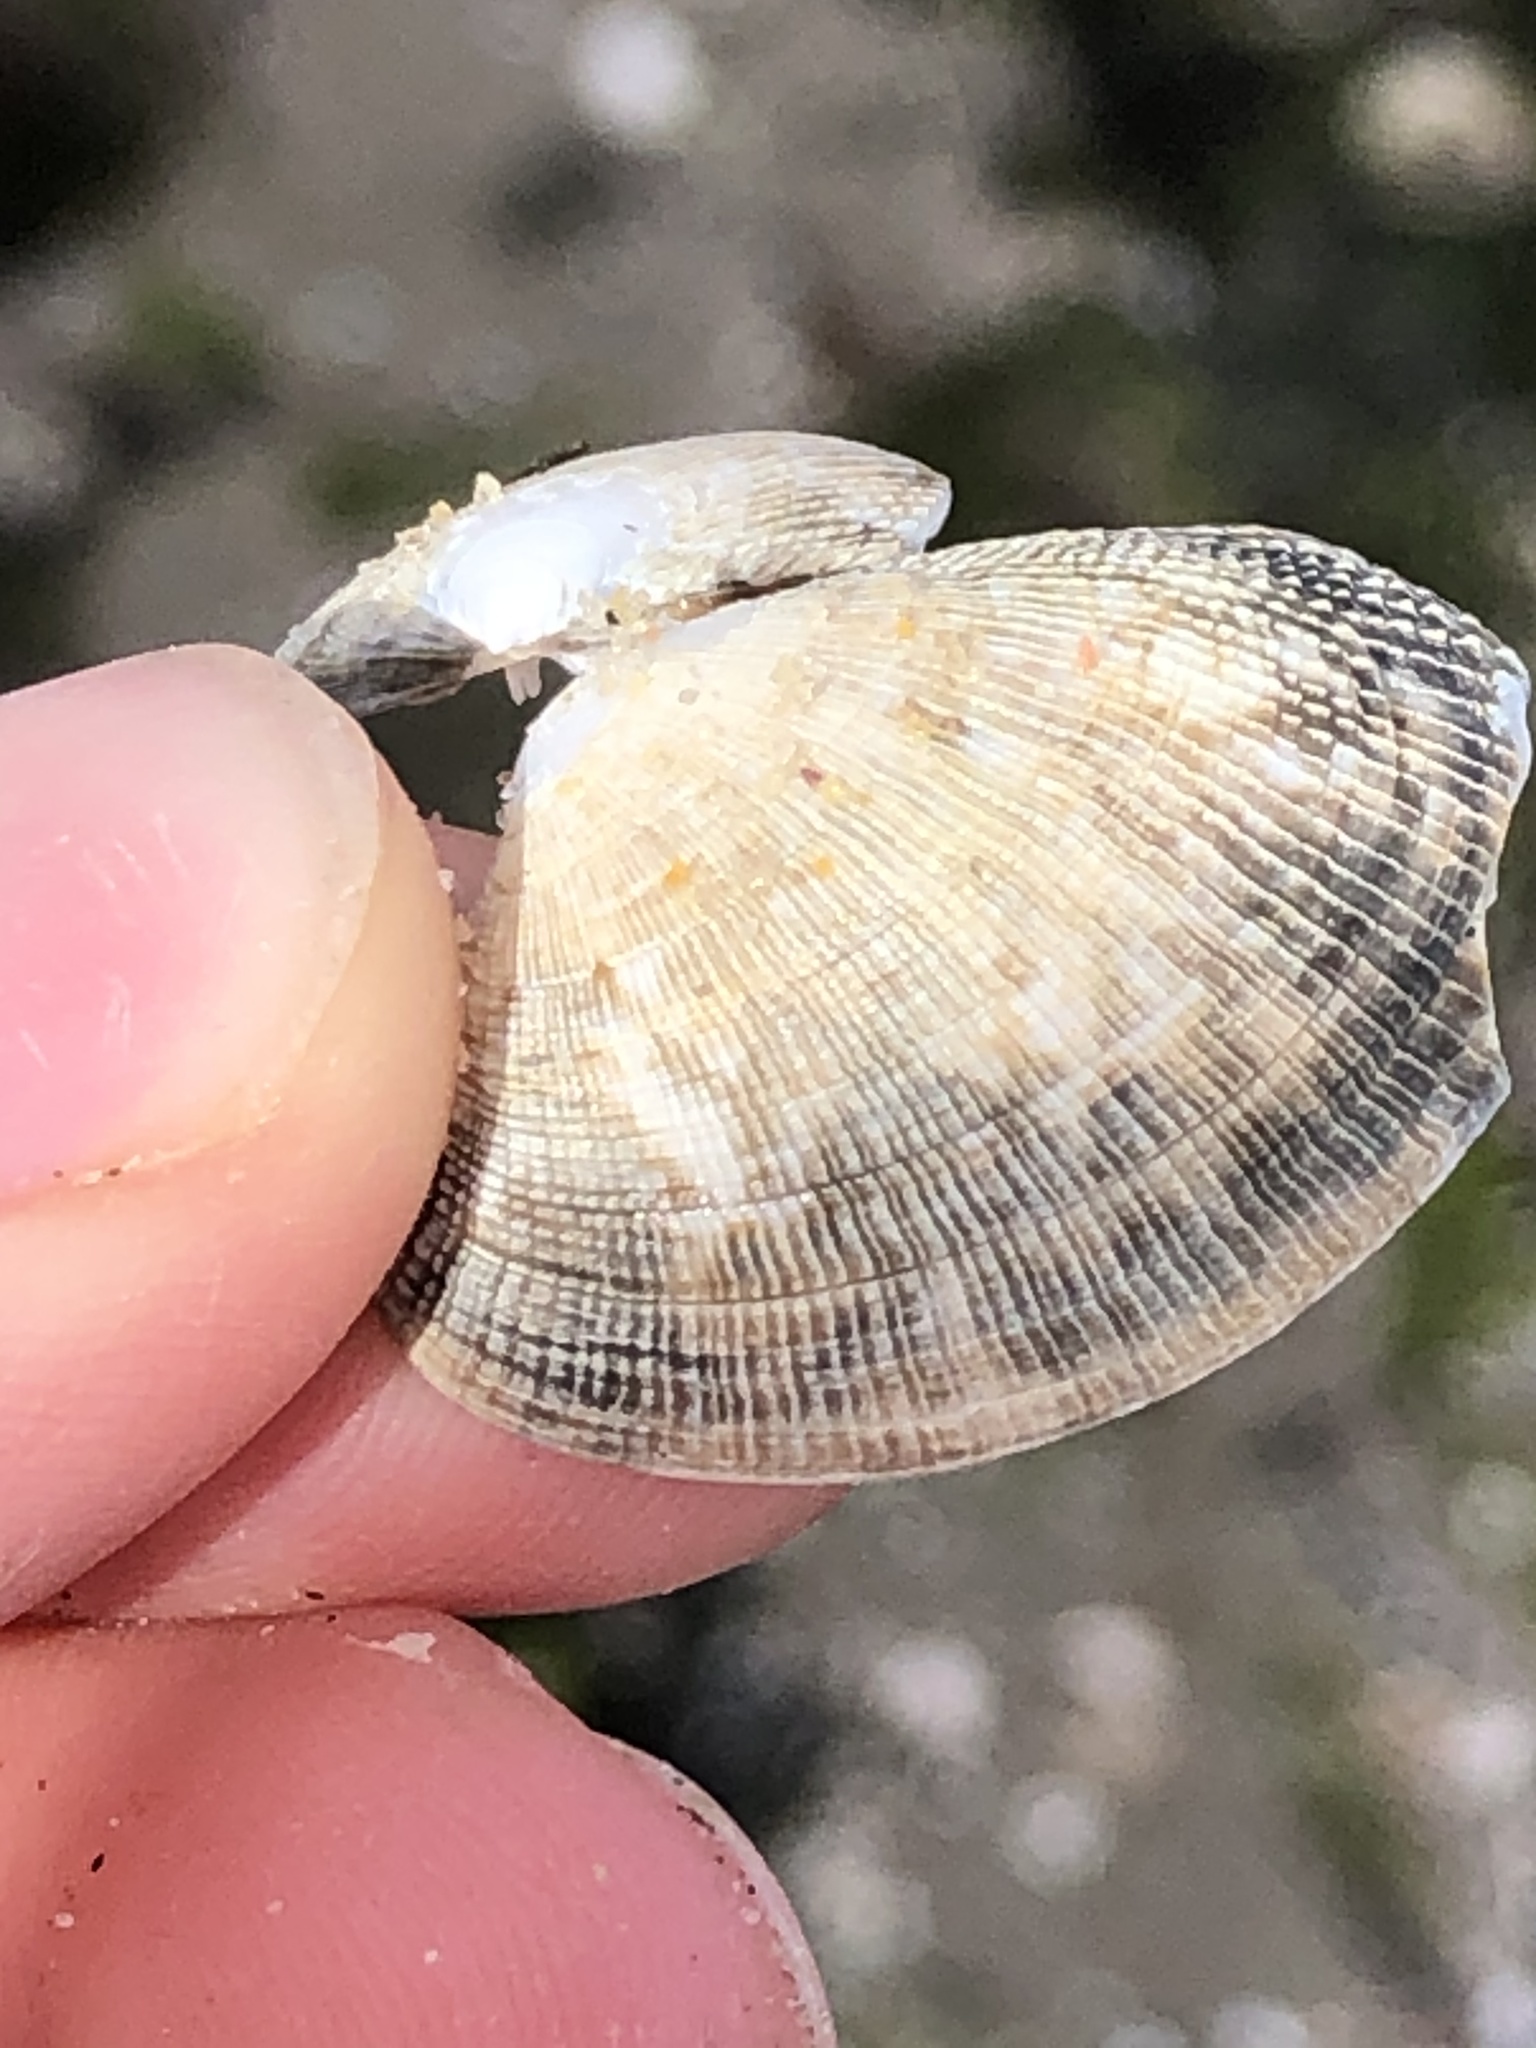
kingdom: Animalia
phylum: Mollusca
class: Bivalvia
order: Venerida
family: Veneridae
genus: Ruditapes
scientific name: Ruditapes philippinarum
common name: Manila clam
